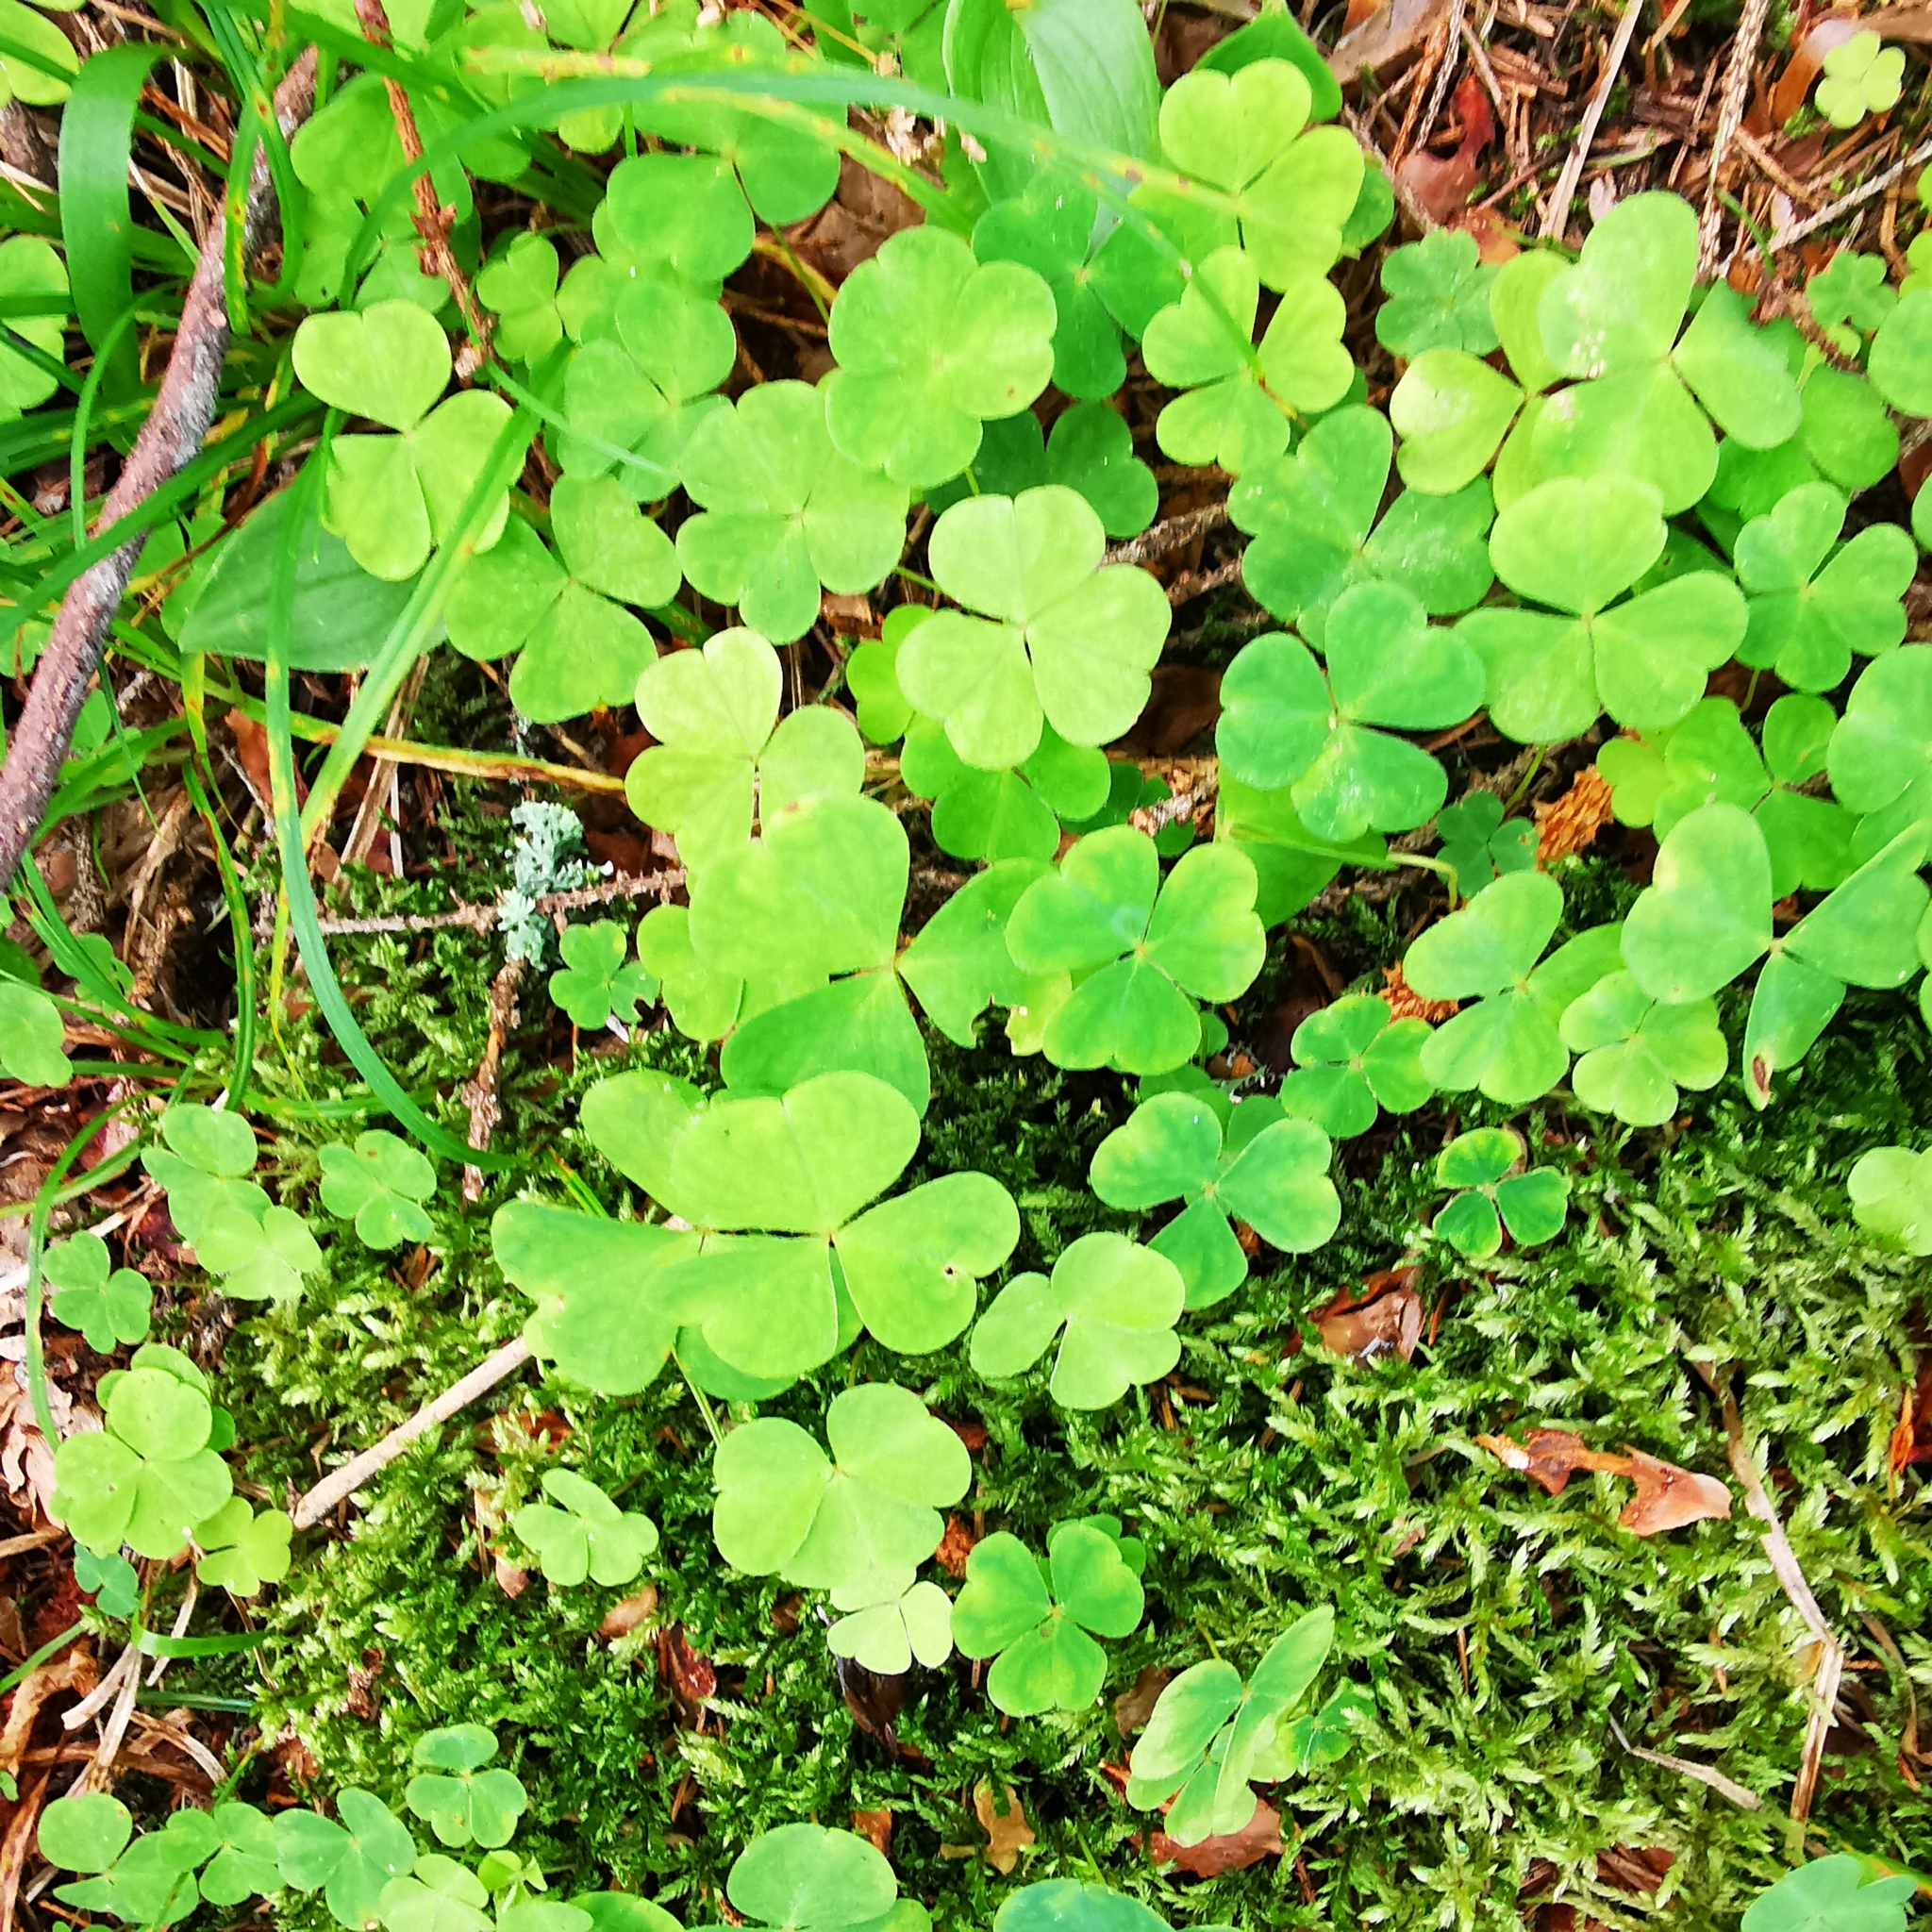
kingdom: Plantae
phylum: Tracheophyta
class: Magnoliopsida
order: Oxalidales
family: Oxalidaceae
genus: Oxalis
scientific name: Oxalis acetosella
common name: Wood-sorrel
